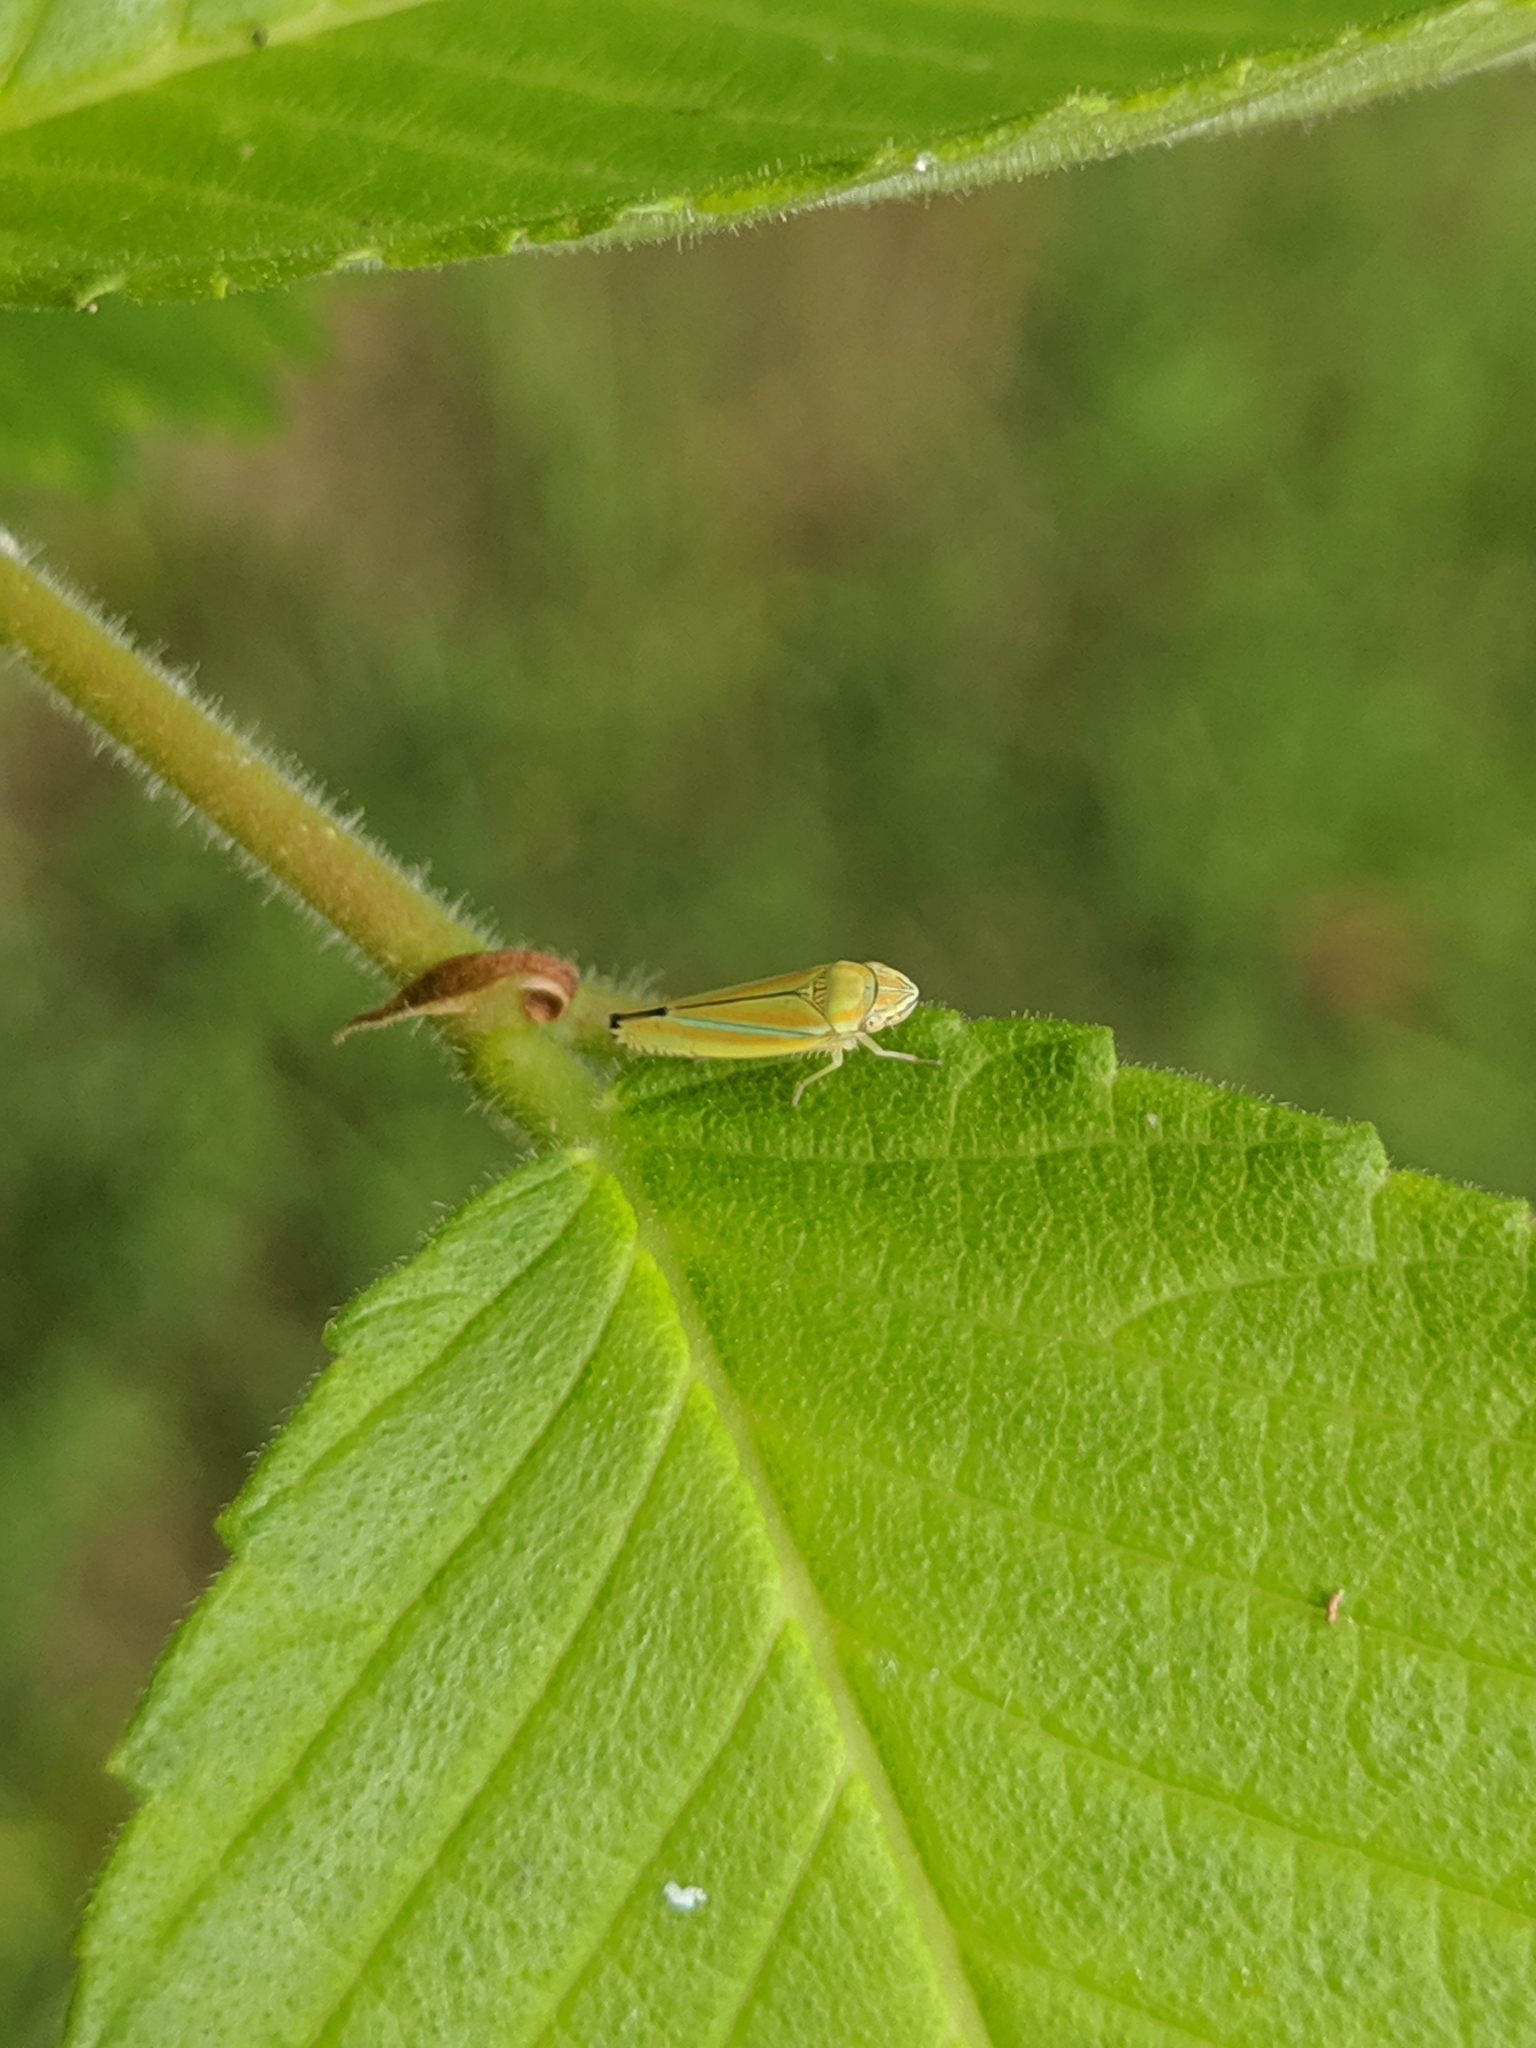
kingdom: Animalia
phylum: Arthropoda
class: Insecta
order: Hemiptera
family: Cicadellidae
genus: Graphocephala
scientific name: Graphocephala versuta
